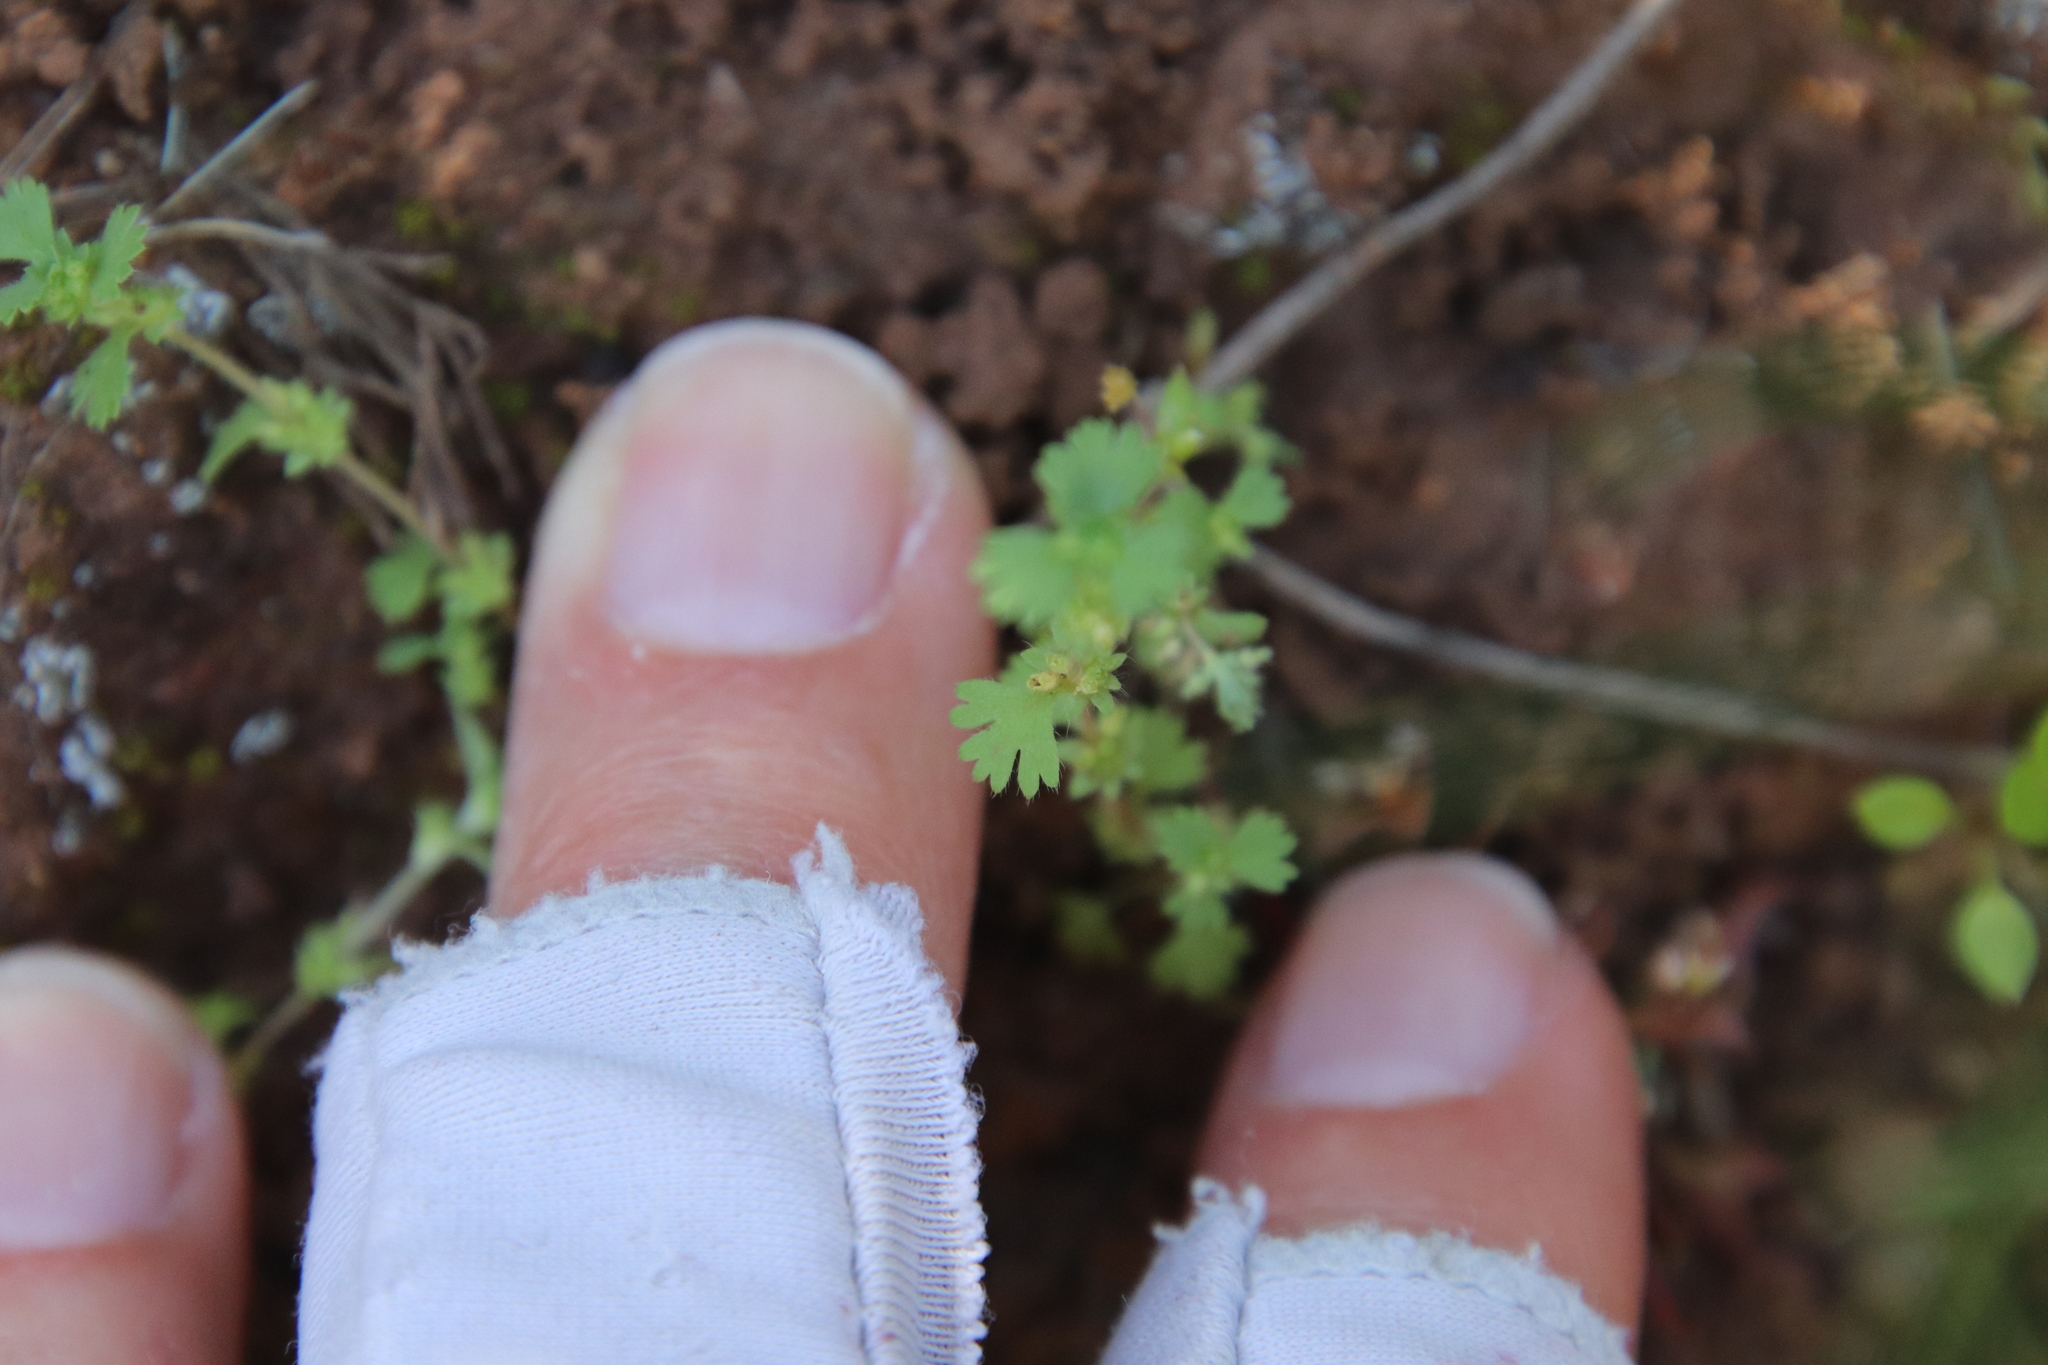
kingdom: Plantae
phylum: Tracheophyta
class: Magnoliopsida
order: Rosales
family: Rosaceae
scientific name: Rosaceae
